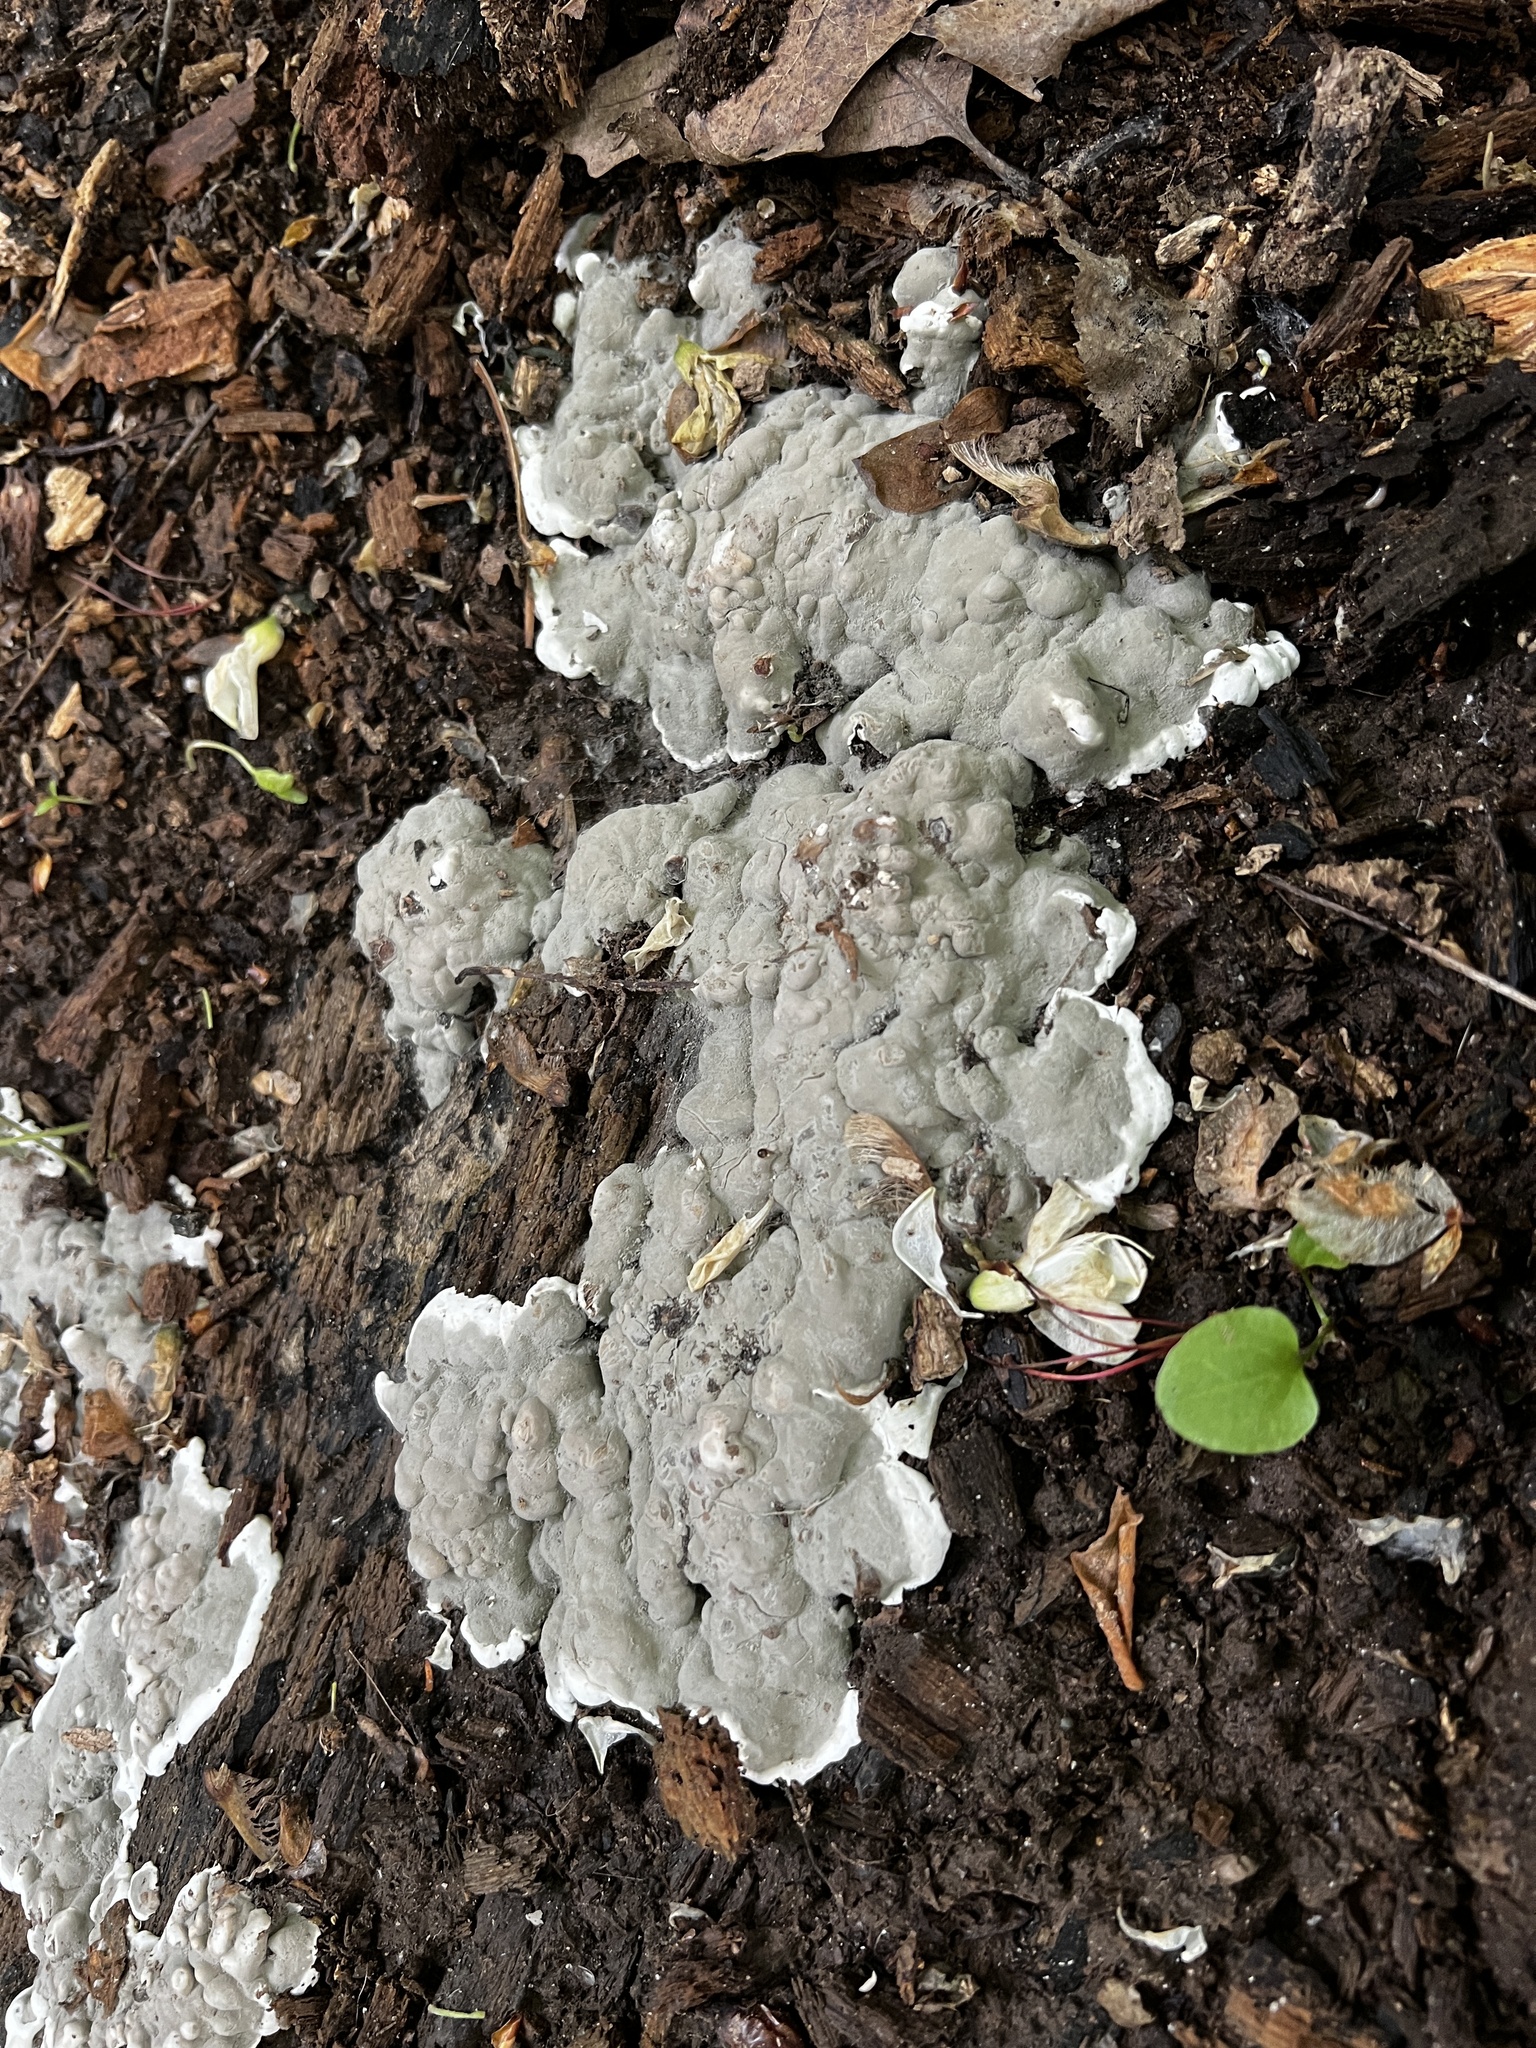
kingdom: Fungi
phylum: Ascomycota
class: Sordariomycetes
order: Xylariales
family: Xylariaceae
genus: Kretzschmaria
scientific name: Kretzschmaria deusta
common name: Brittle cinder
